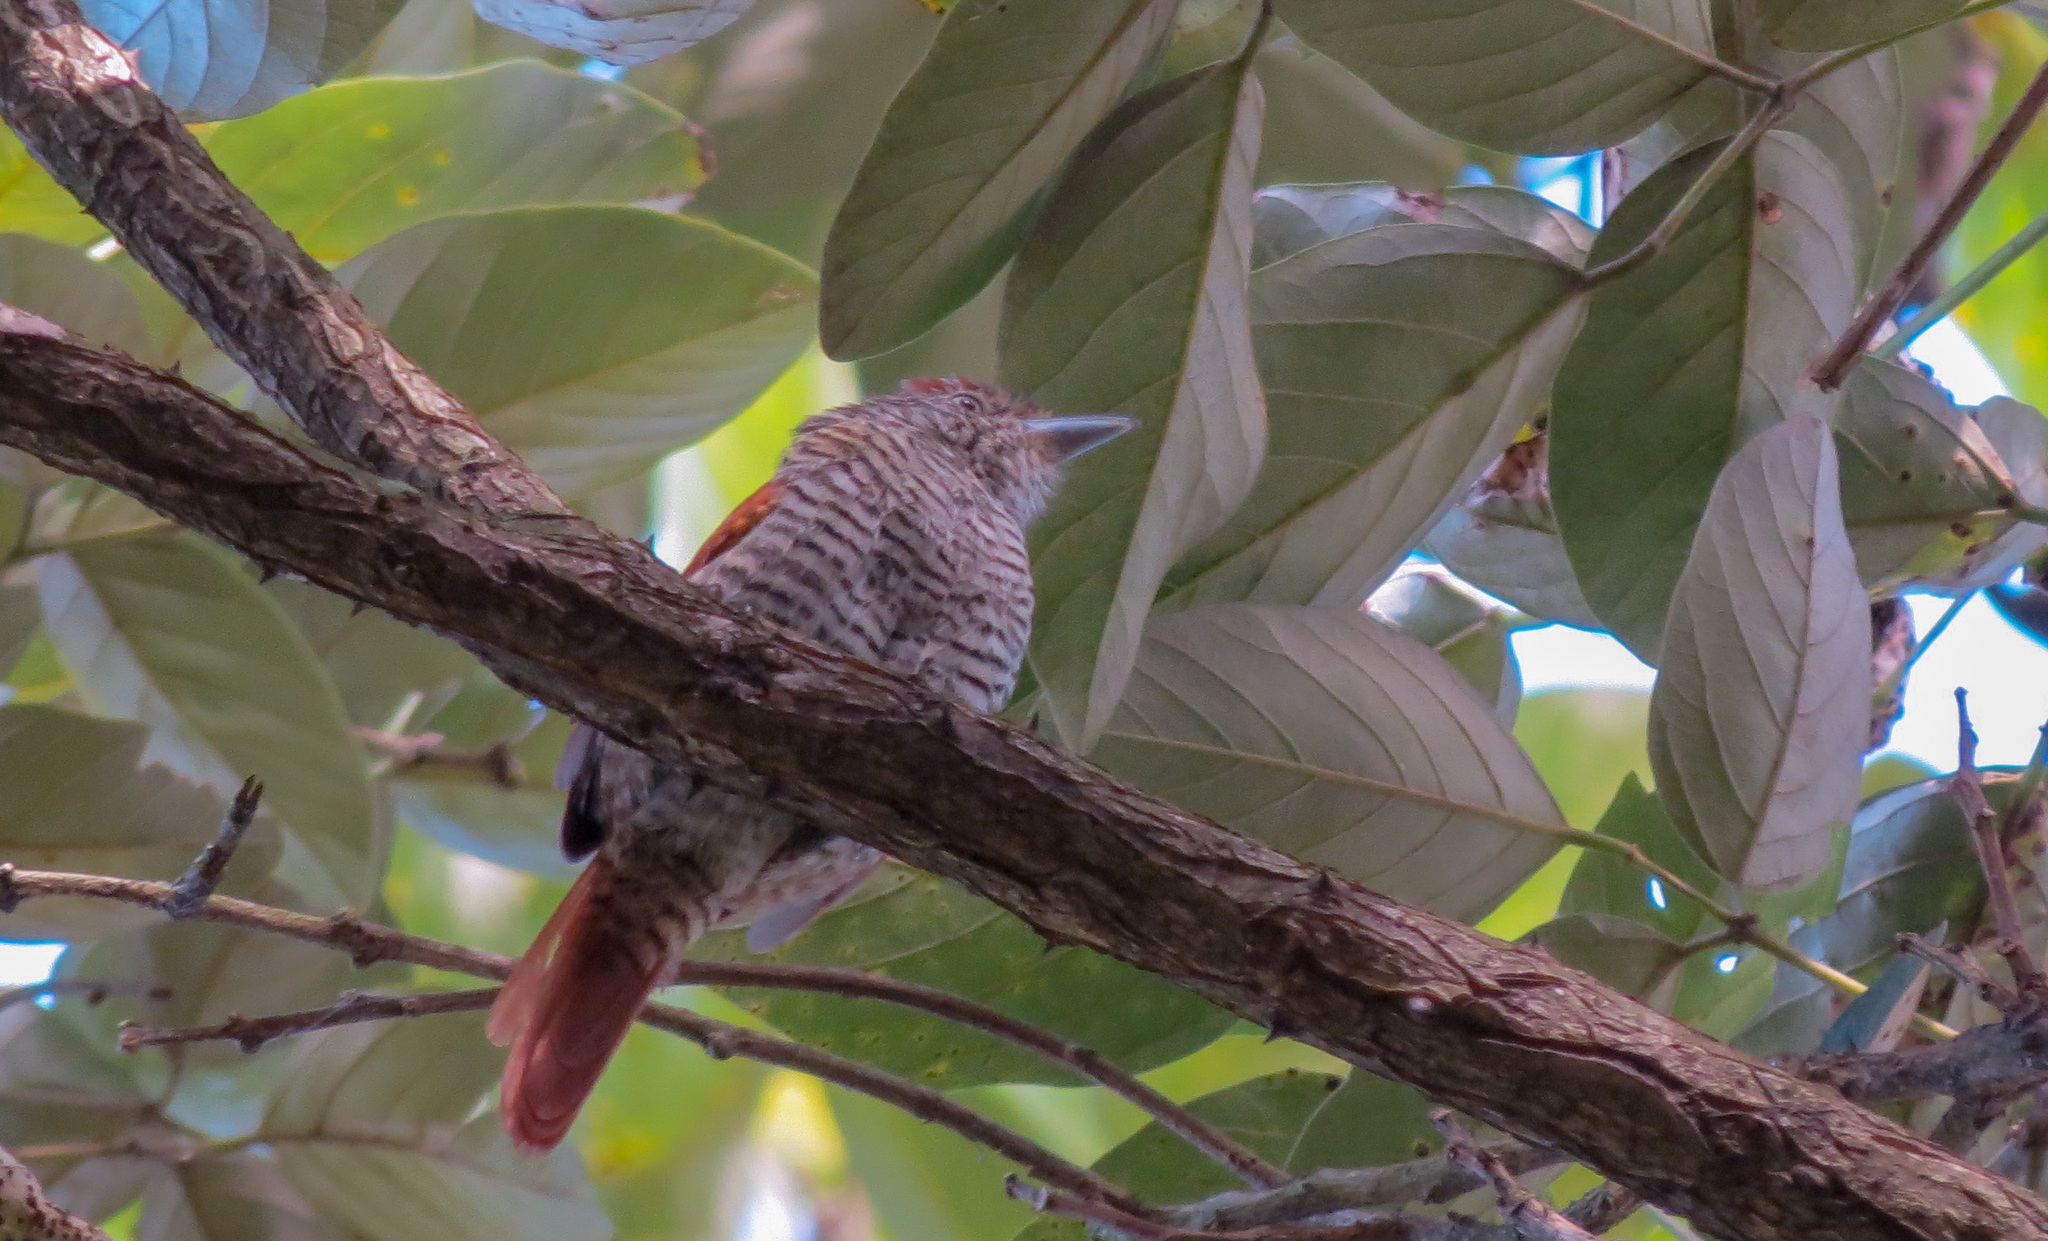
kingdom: Animalia
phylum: Chordata
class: Aves
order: Passeriformes
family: Thamnophilidae
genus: Thamnophilus
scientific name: Thamnophilus multistriatus
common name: Bar-crested antshrike
